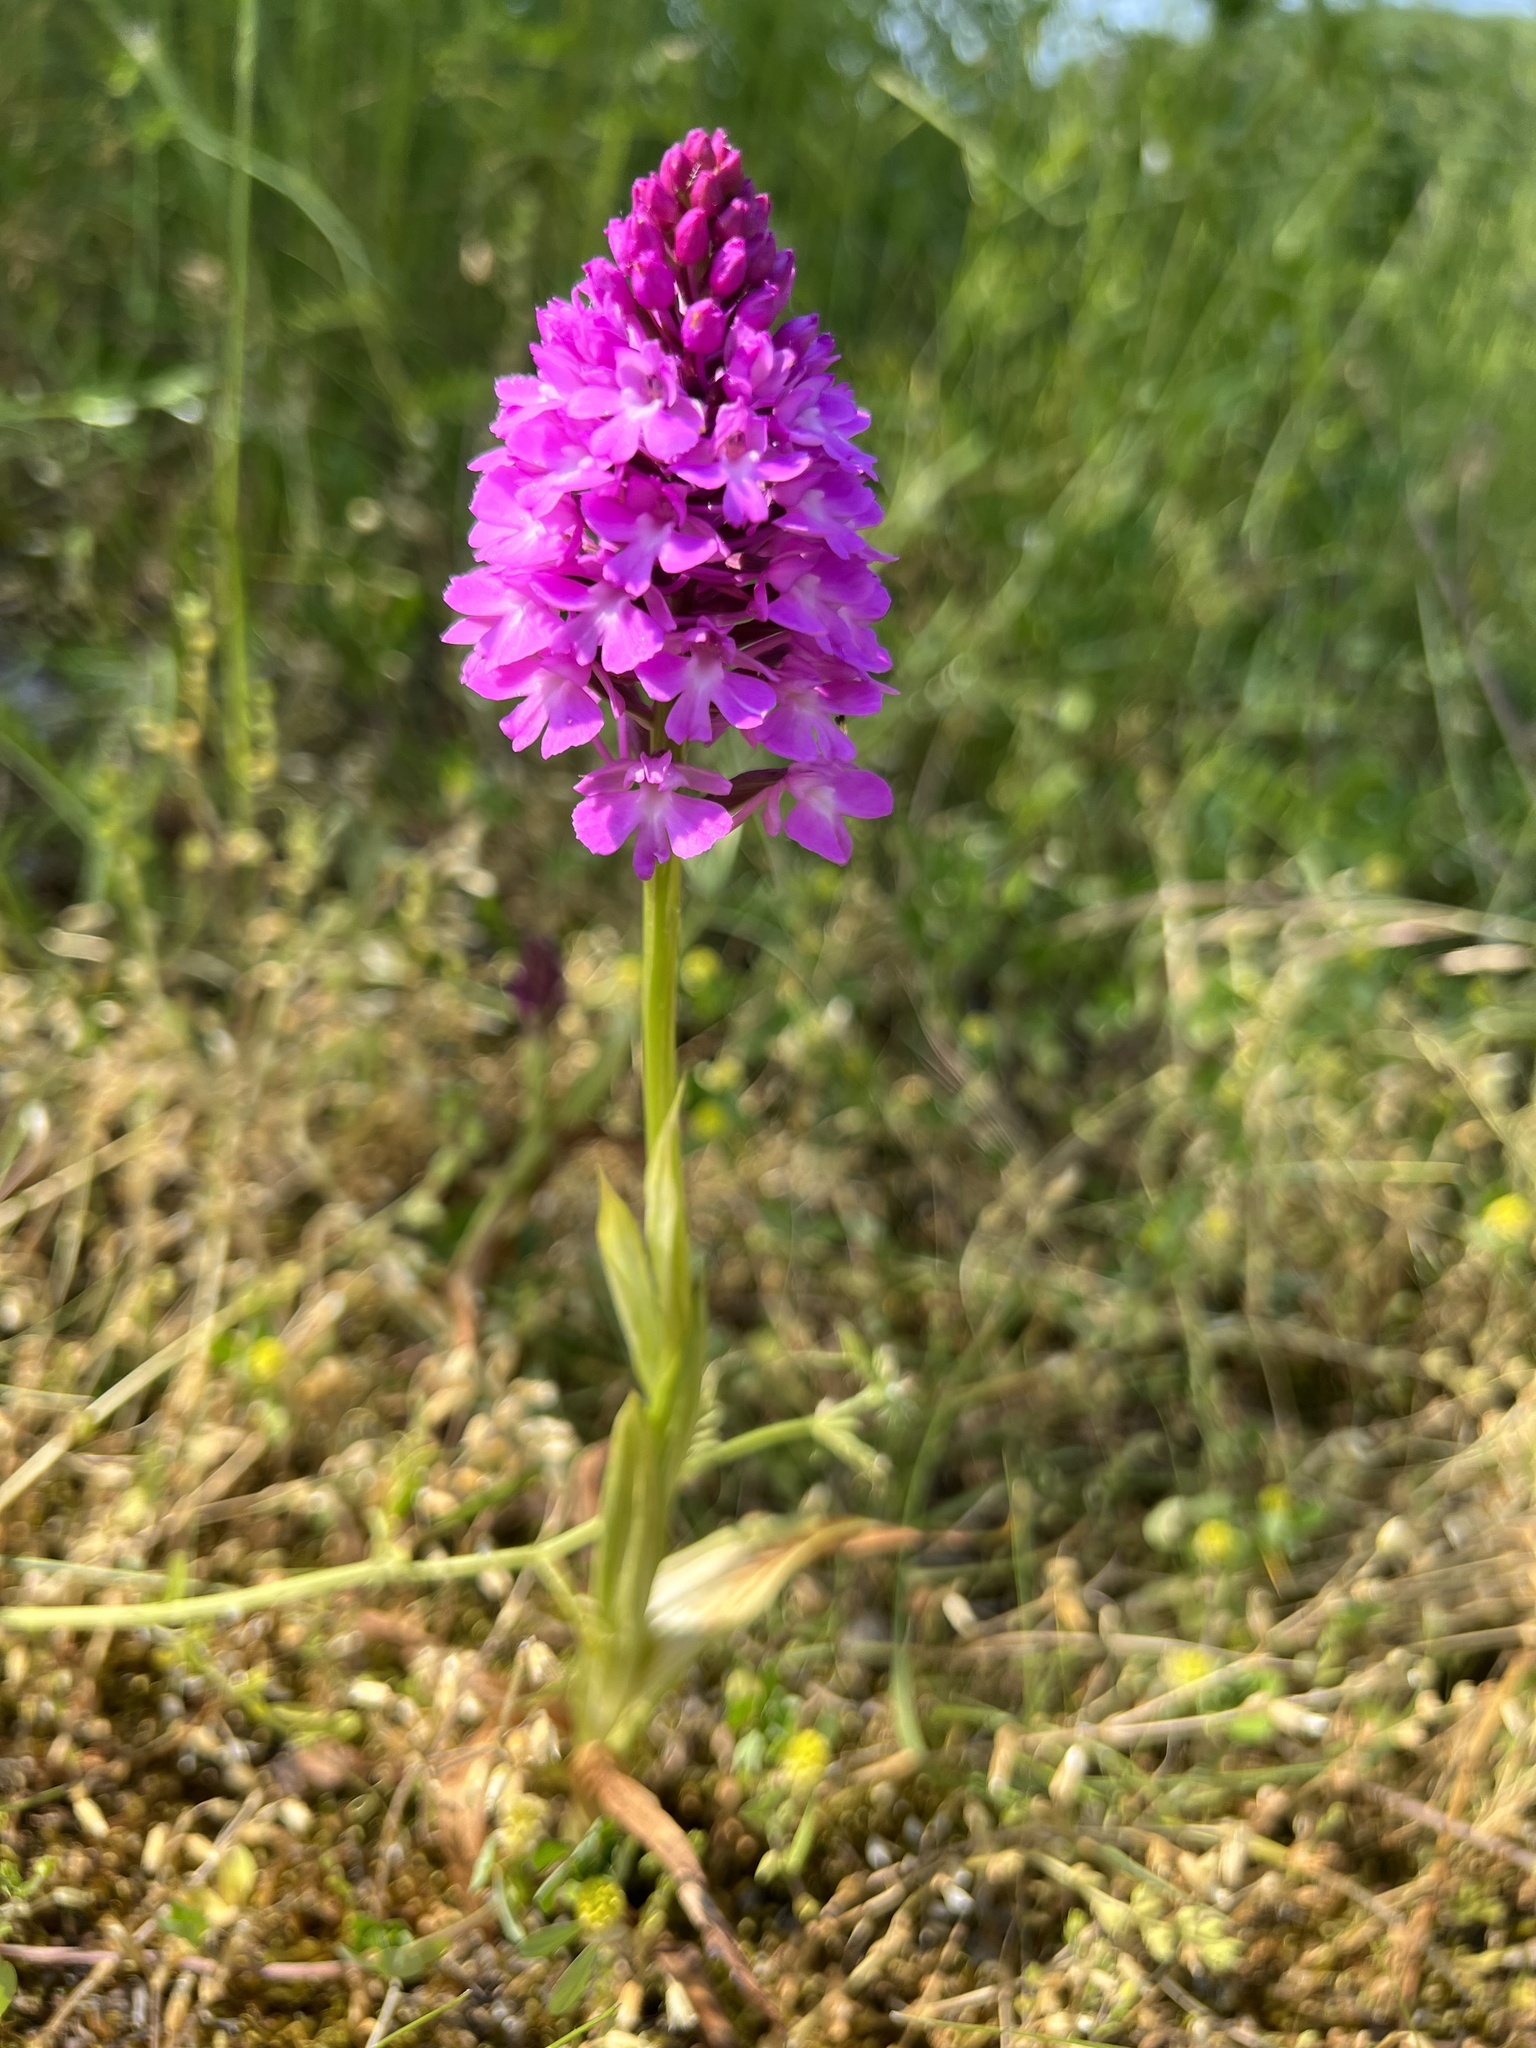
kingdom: Plantae
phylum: Tracheophyta
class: Liliopsida
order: Asparagales
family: Orchidaceae
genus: Anacamptis
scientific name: Anacamptis pyramidalis
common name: Pyramidal orchid
